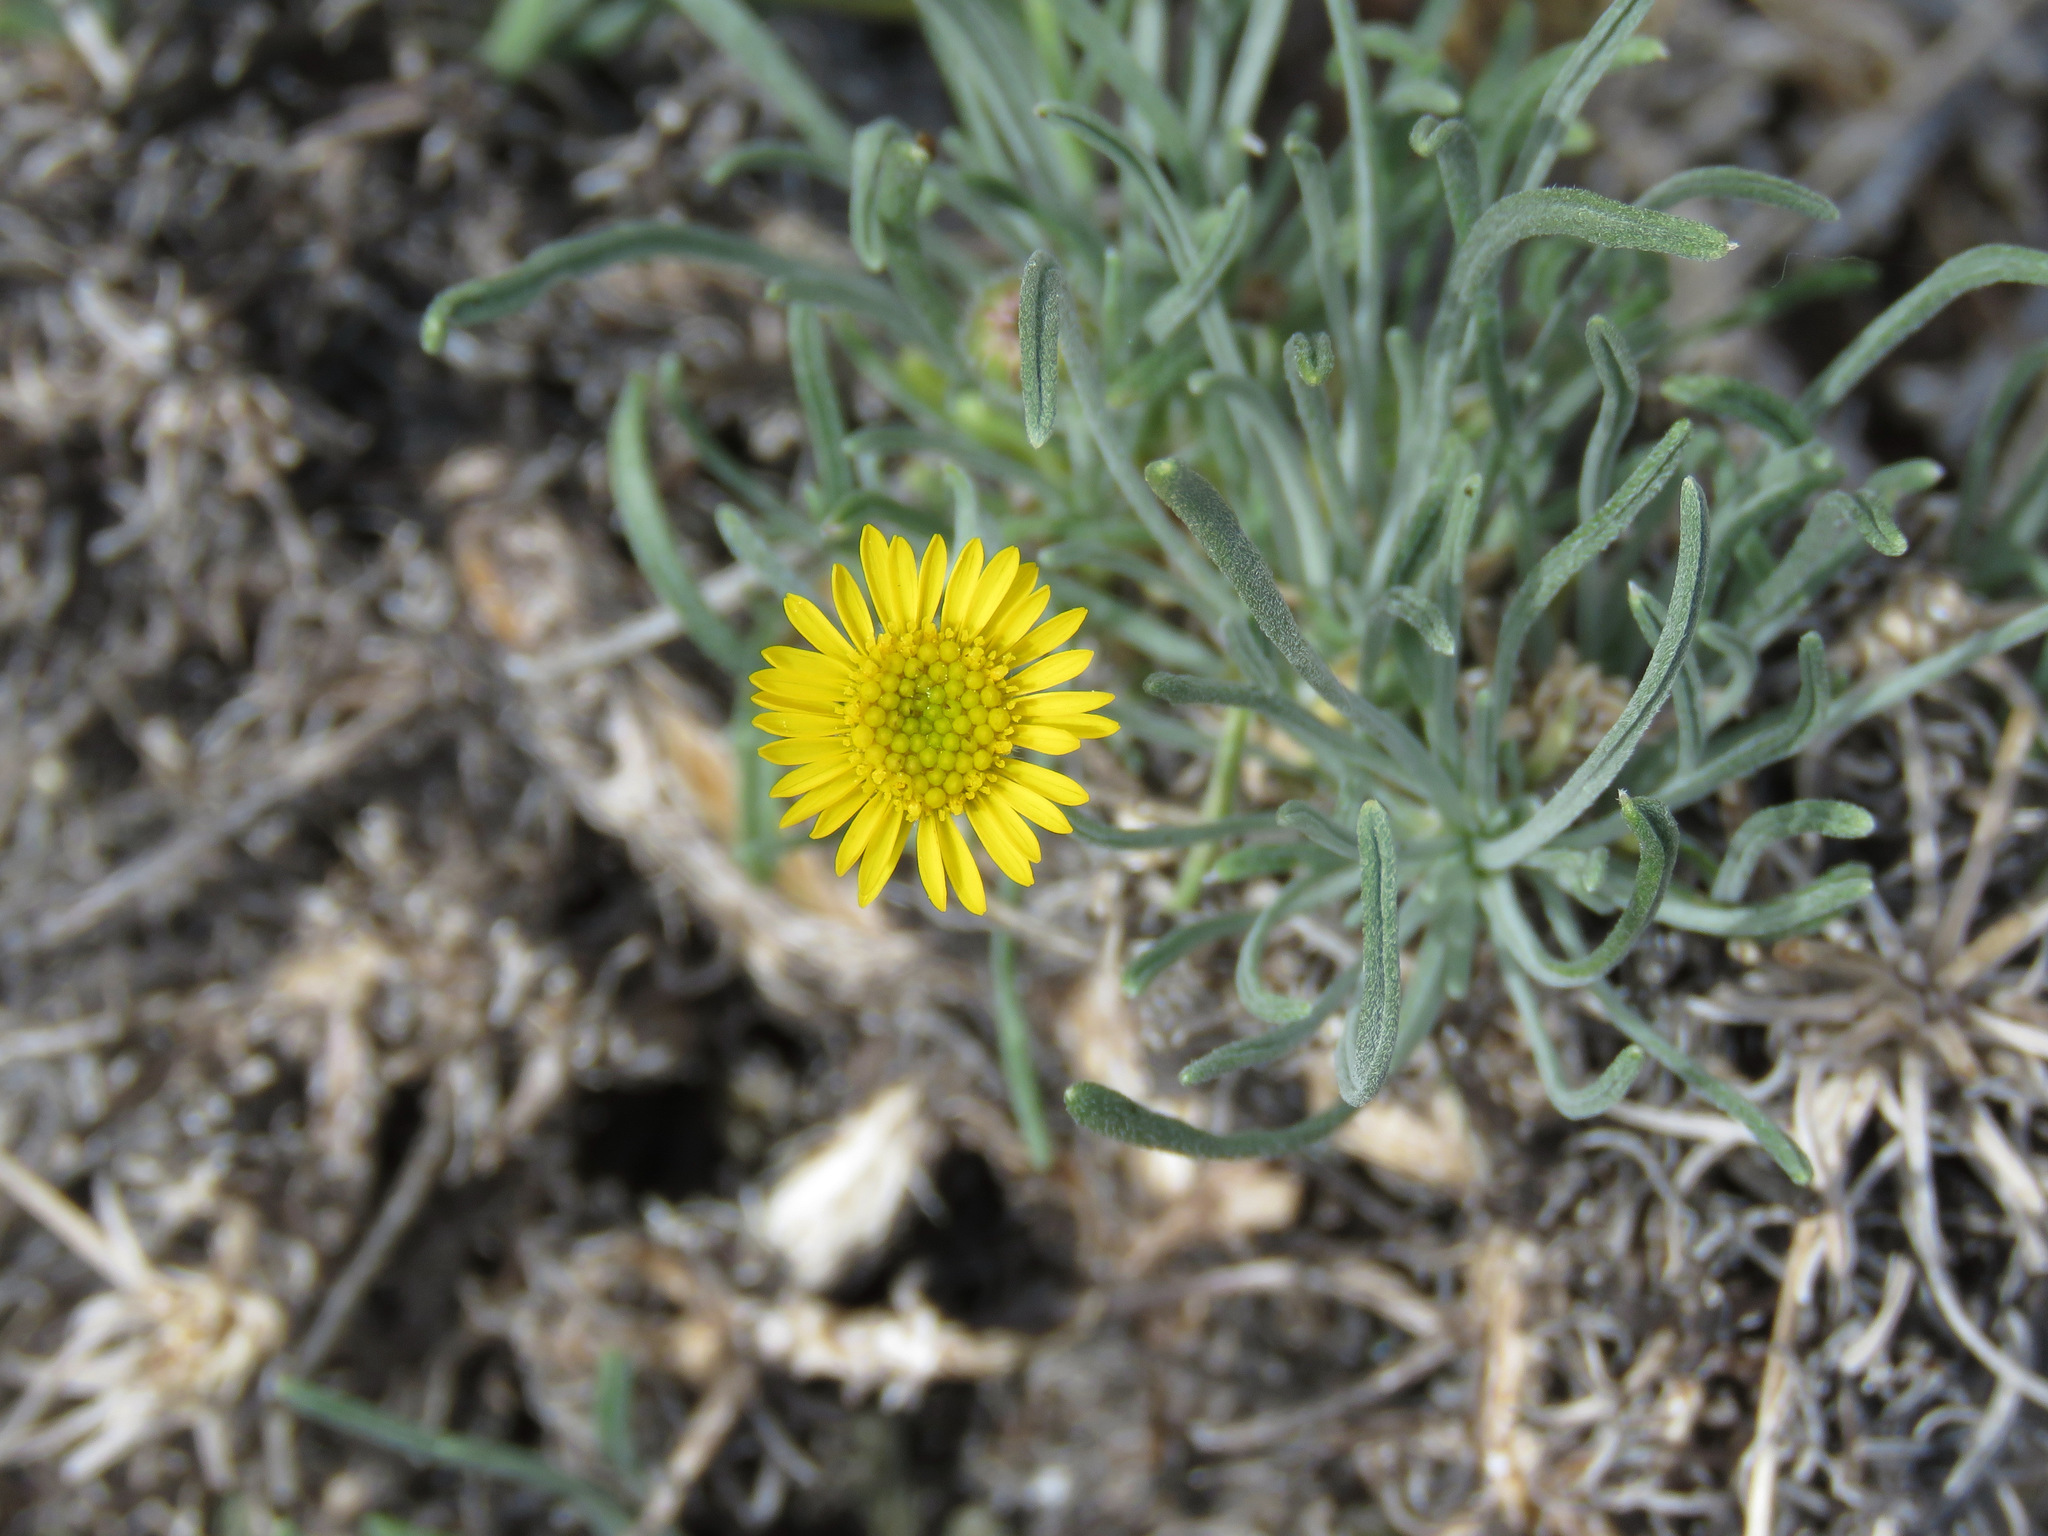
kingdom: Plantae
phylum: Tracheophyta
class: Magnoliopsida
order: Asterales
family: Asteraceae
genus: Erigeron
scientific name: Erigeron linearis
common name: Desert yellow fleabane
